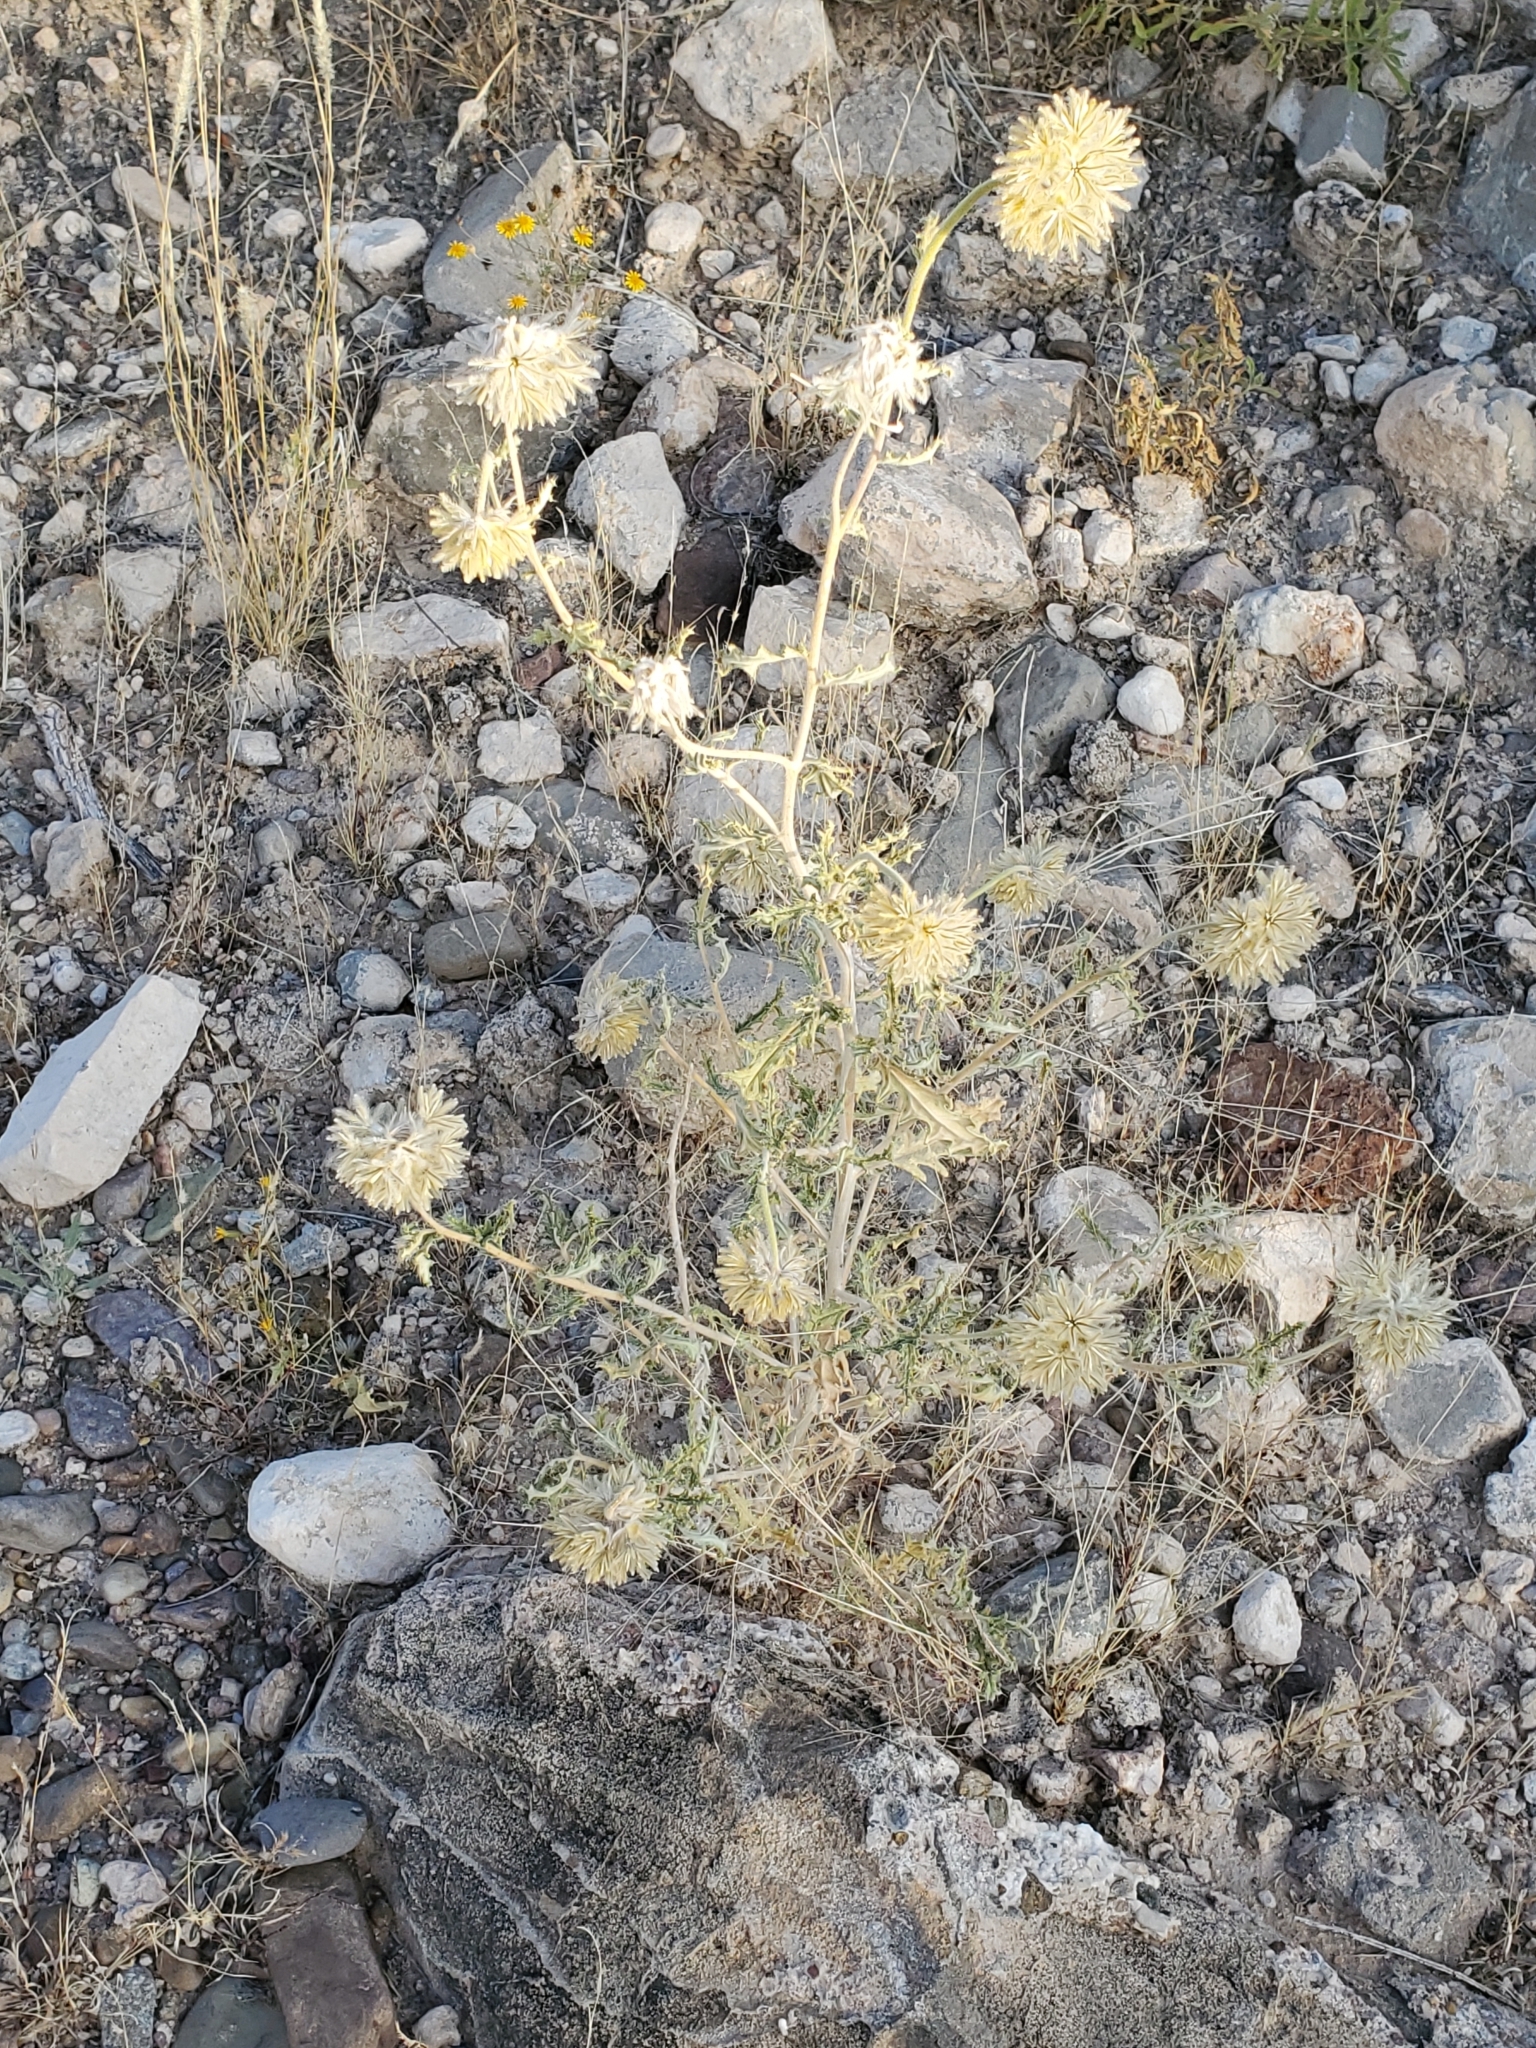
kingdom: Plantae
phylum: Tracheophyta
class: Magnoliopsida
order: Cornales
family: Loasaceae
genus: Cevallia
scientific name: Cevallia sinuata
